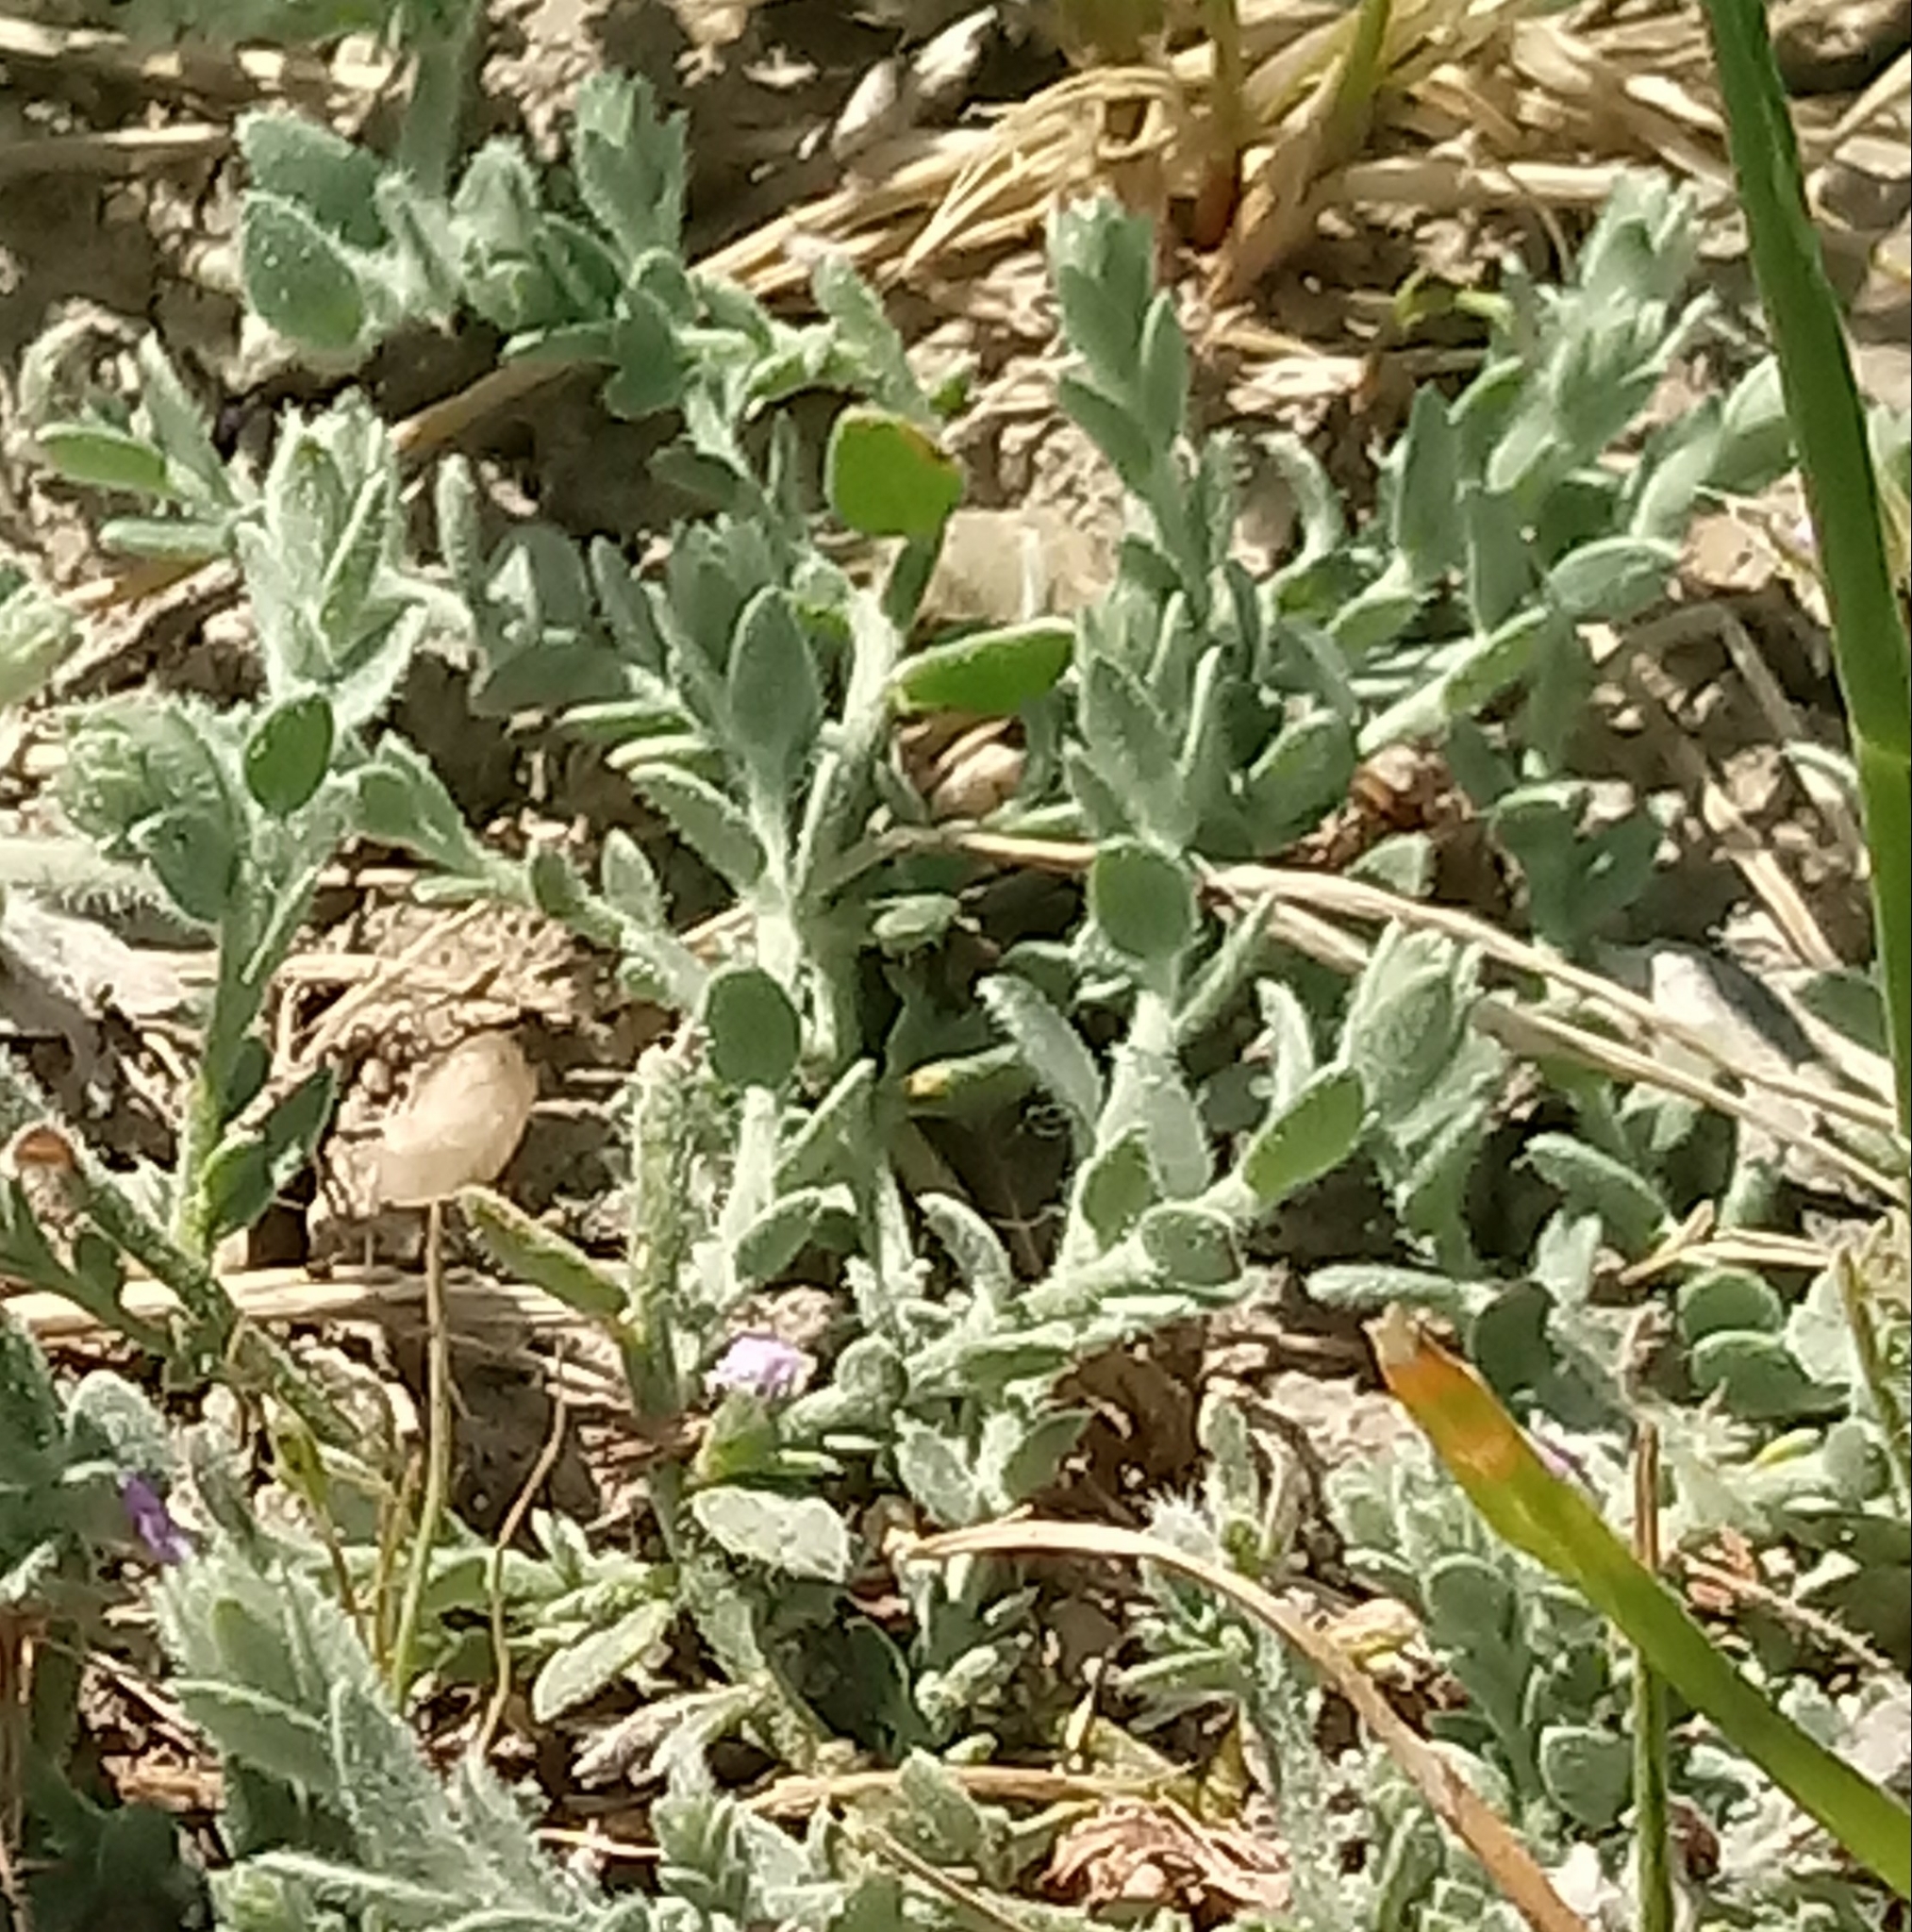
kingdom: Plantae
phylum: Tracheophyta
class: Magnoliopsida
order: Solanales
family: Convolvulaceae
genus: Cressa
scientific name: Cressa truxillensis
